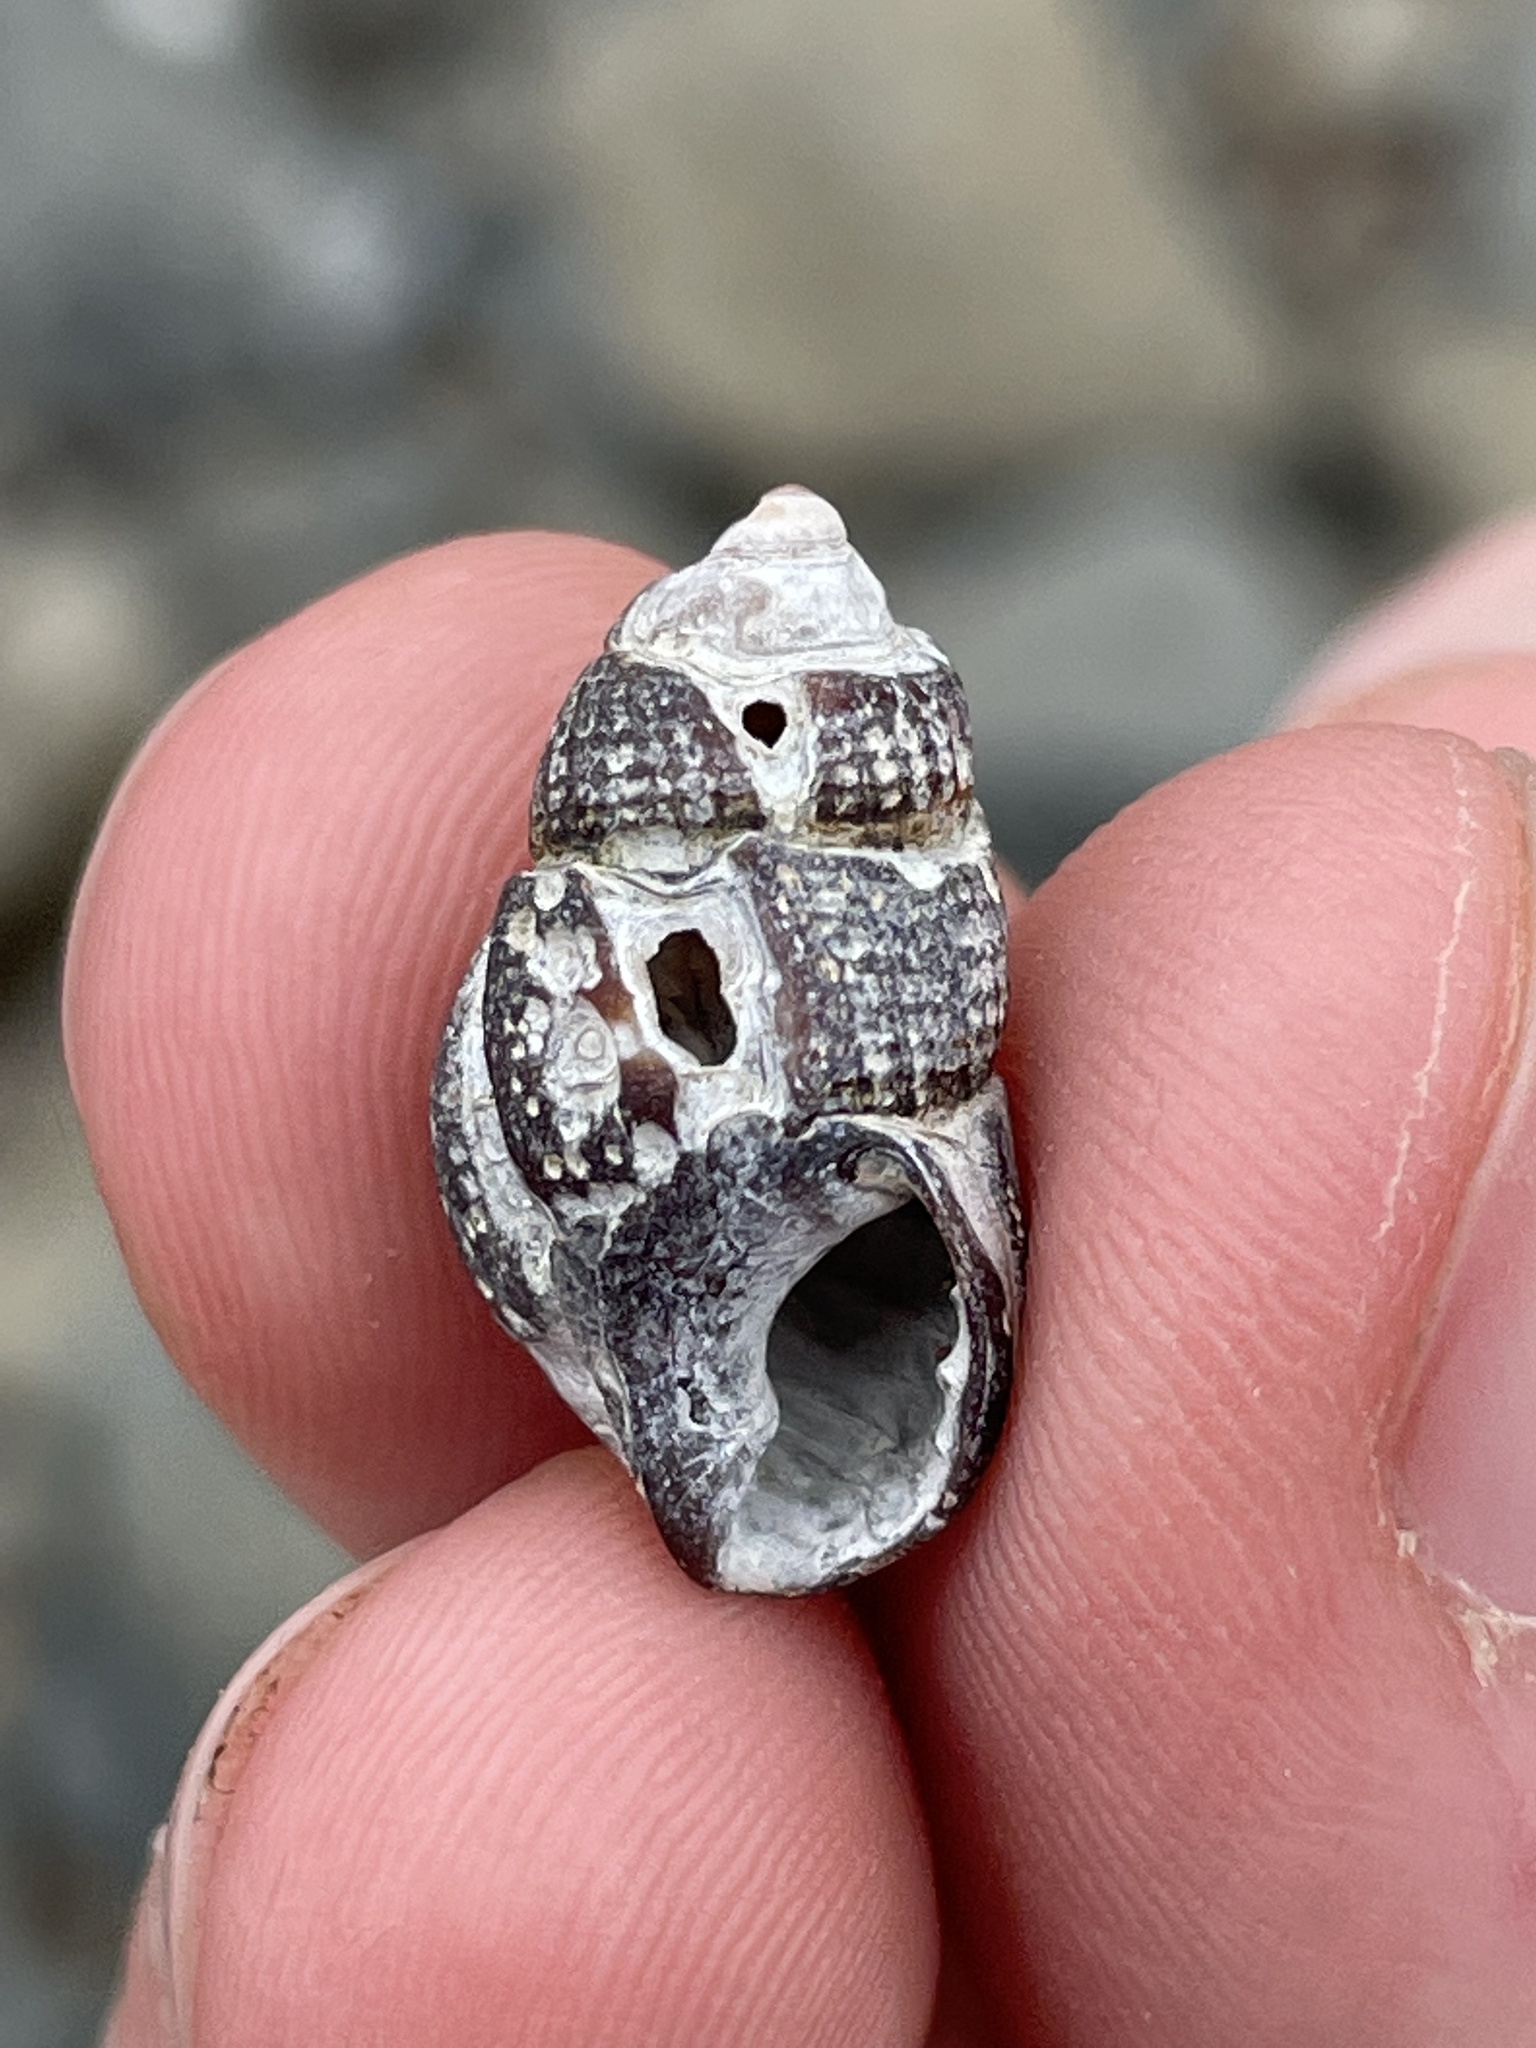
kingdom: Animalia
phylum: Mollusca
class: Gastropoda
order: Neogastropoda
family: Nassariidae
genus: Ilyanassa
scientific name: Ilyanassa obsoleta
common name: Eastern mudsnail
